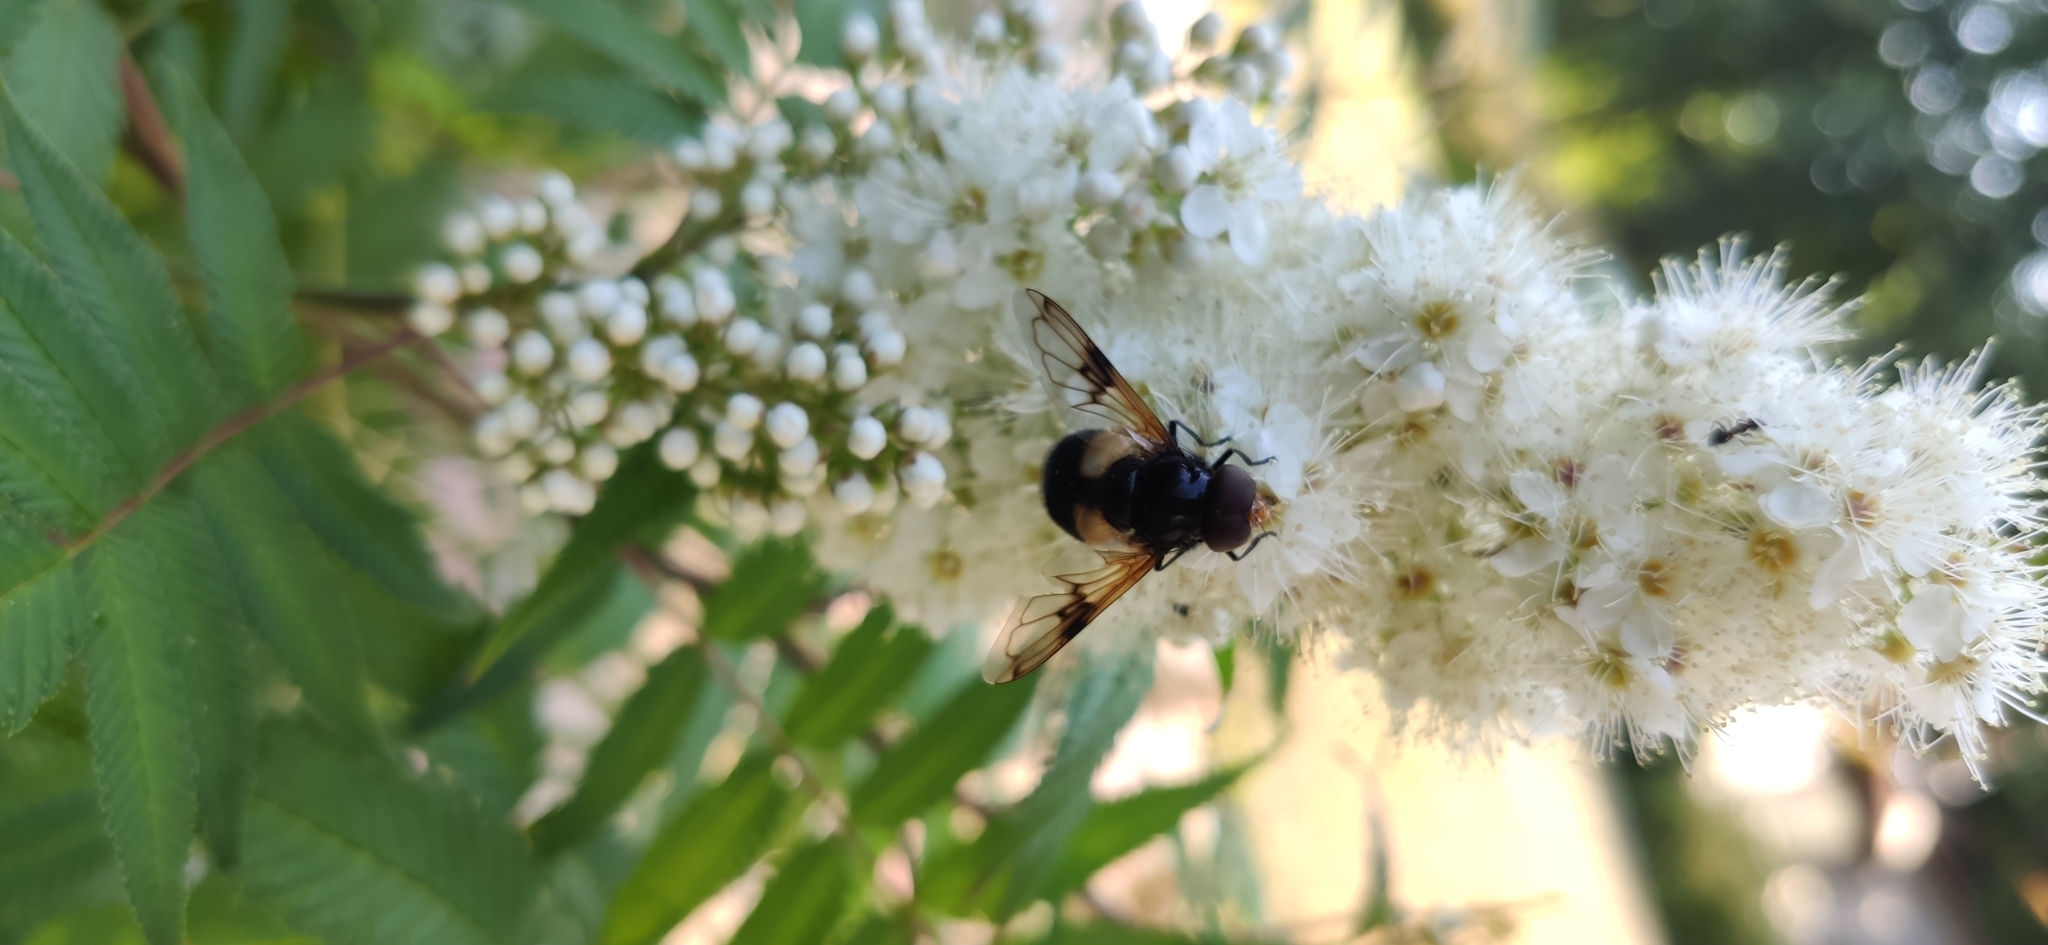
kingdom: Animalia
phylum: Arthropoda
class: Insecta
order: Diptera
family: Syrphidae
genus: Volucella
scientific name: Volucella pellucens
